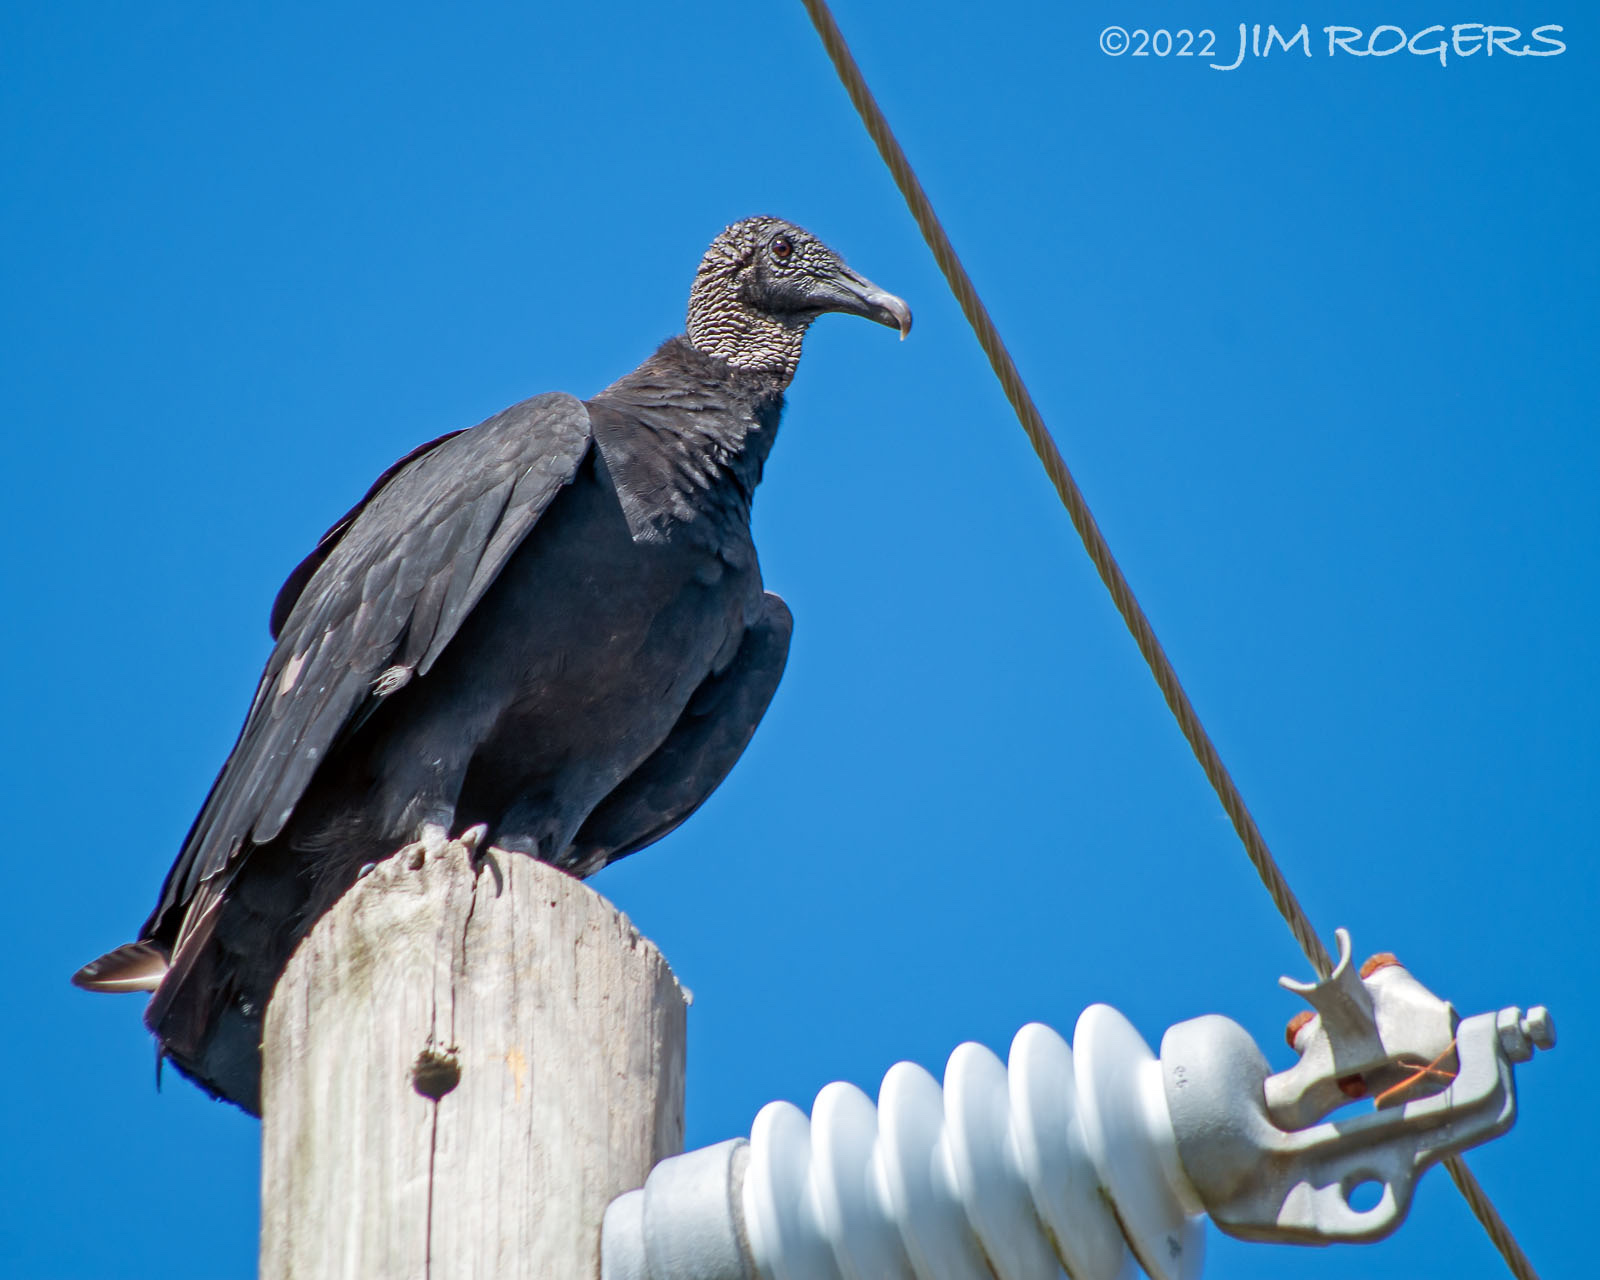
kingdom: Animalia
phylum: Chordata
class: Aves
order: Accipitriformes
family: Cathartidae
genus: Coragyps
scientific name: Coragyps atratus
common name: Black vulture
